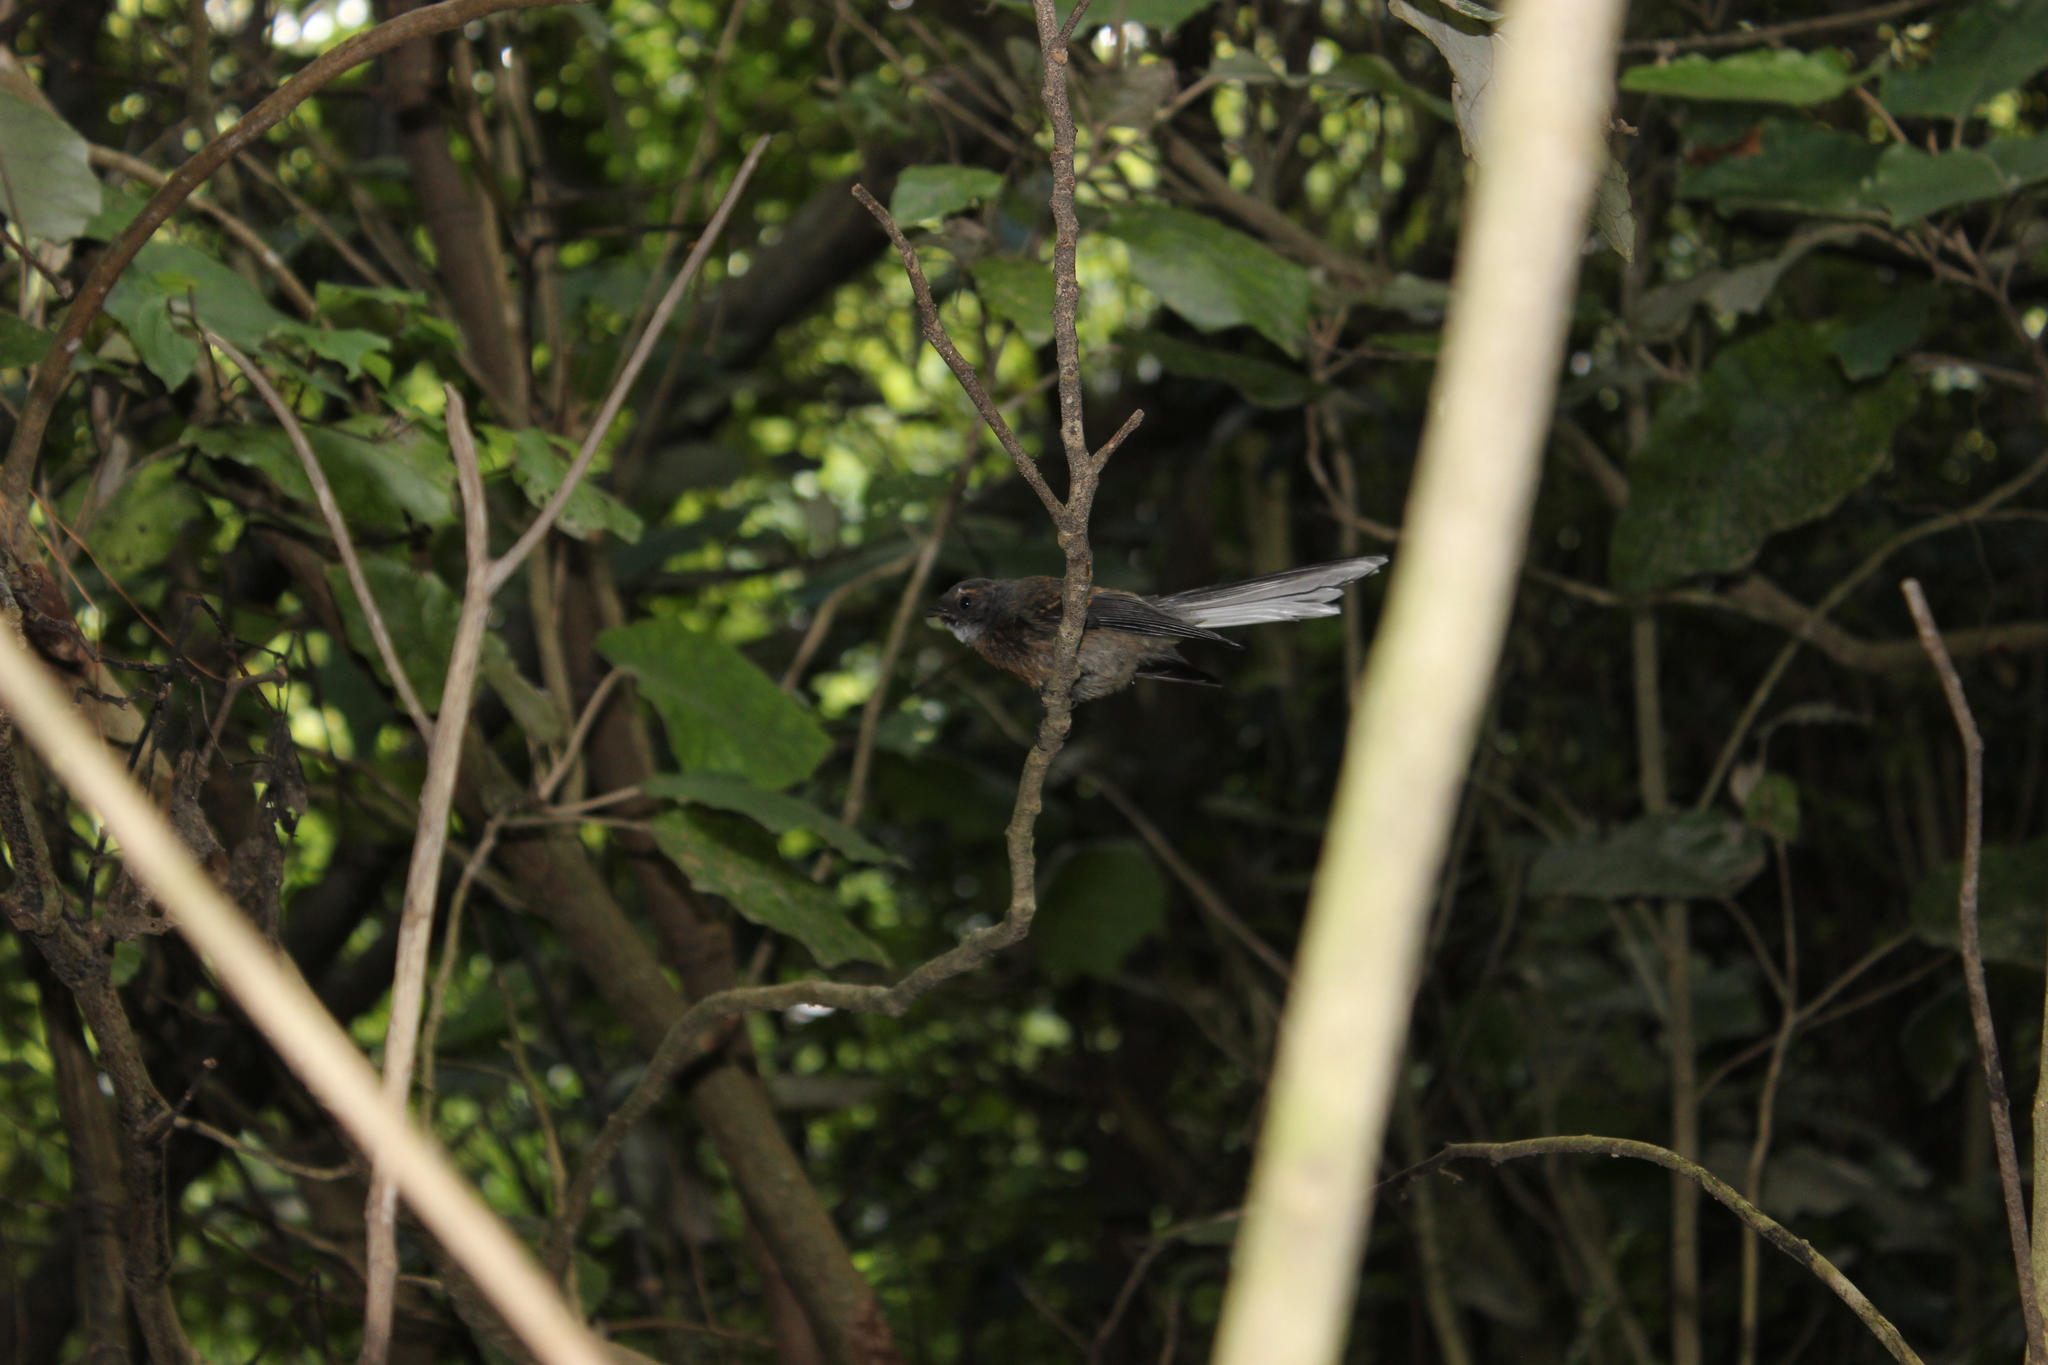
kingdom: Animalia
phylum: Chordata
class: Aves
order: Passeriformes
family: Rhipiduridae
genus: Rhipidura
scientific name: Rhipidura fuliginosa
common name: New zealand fantail
